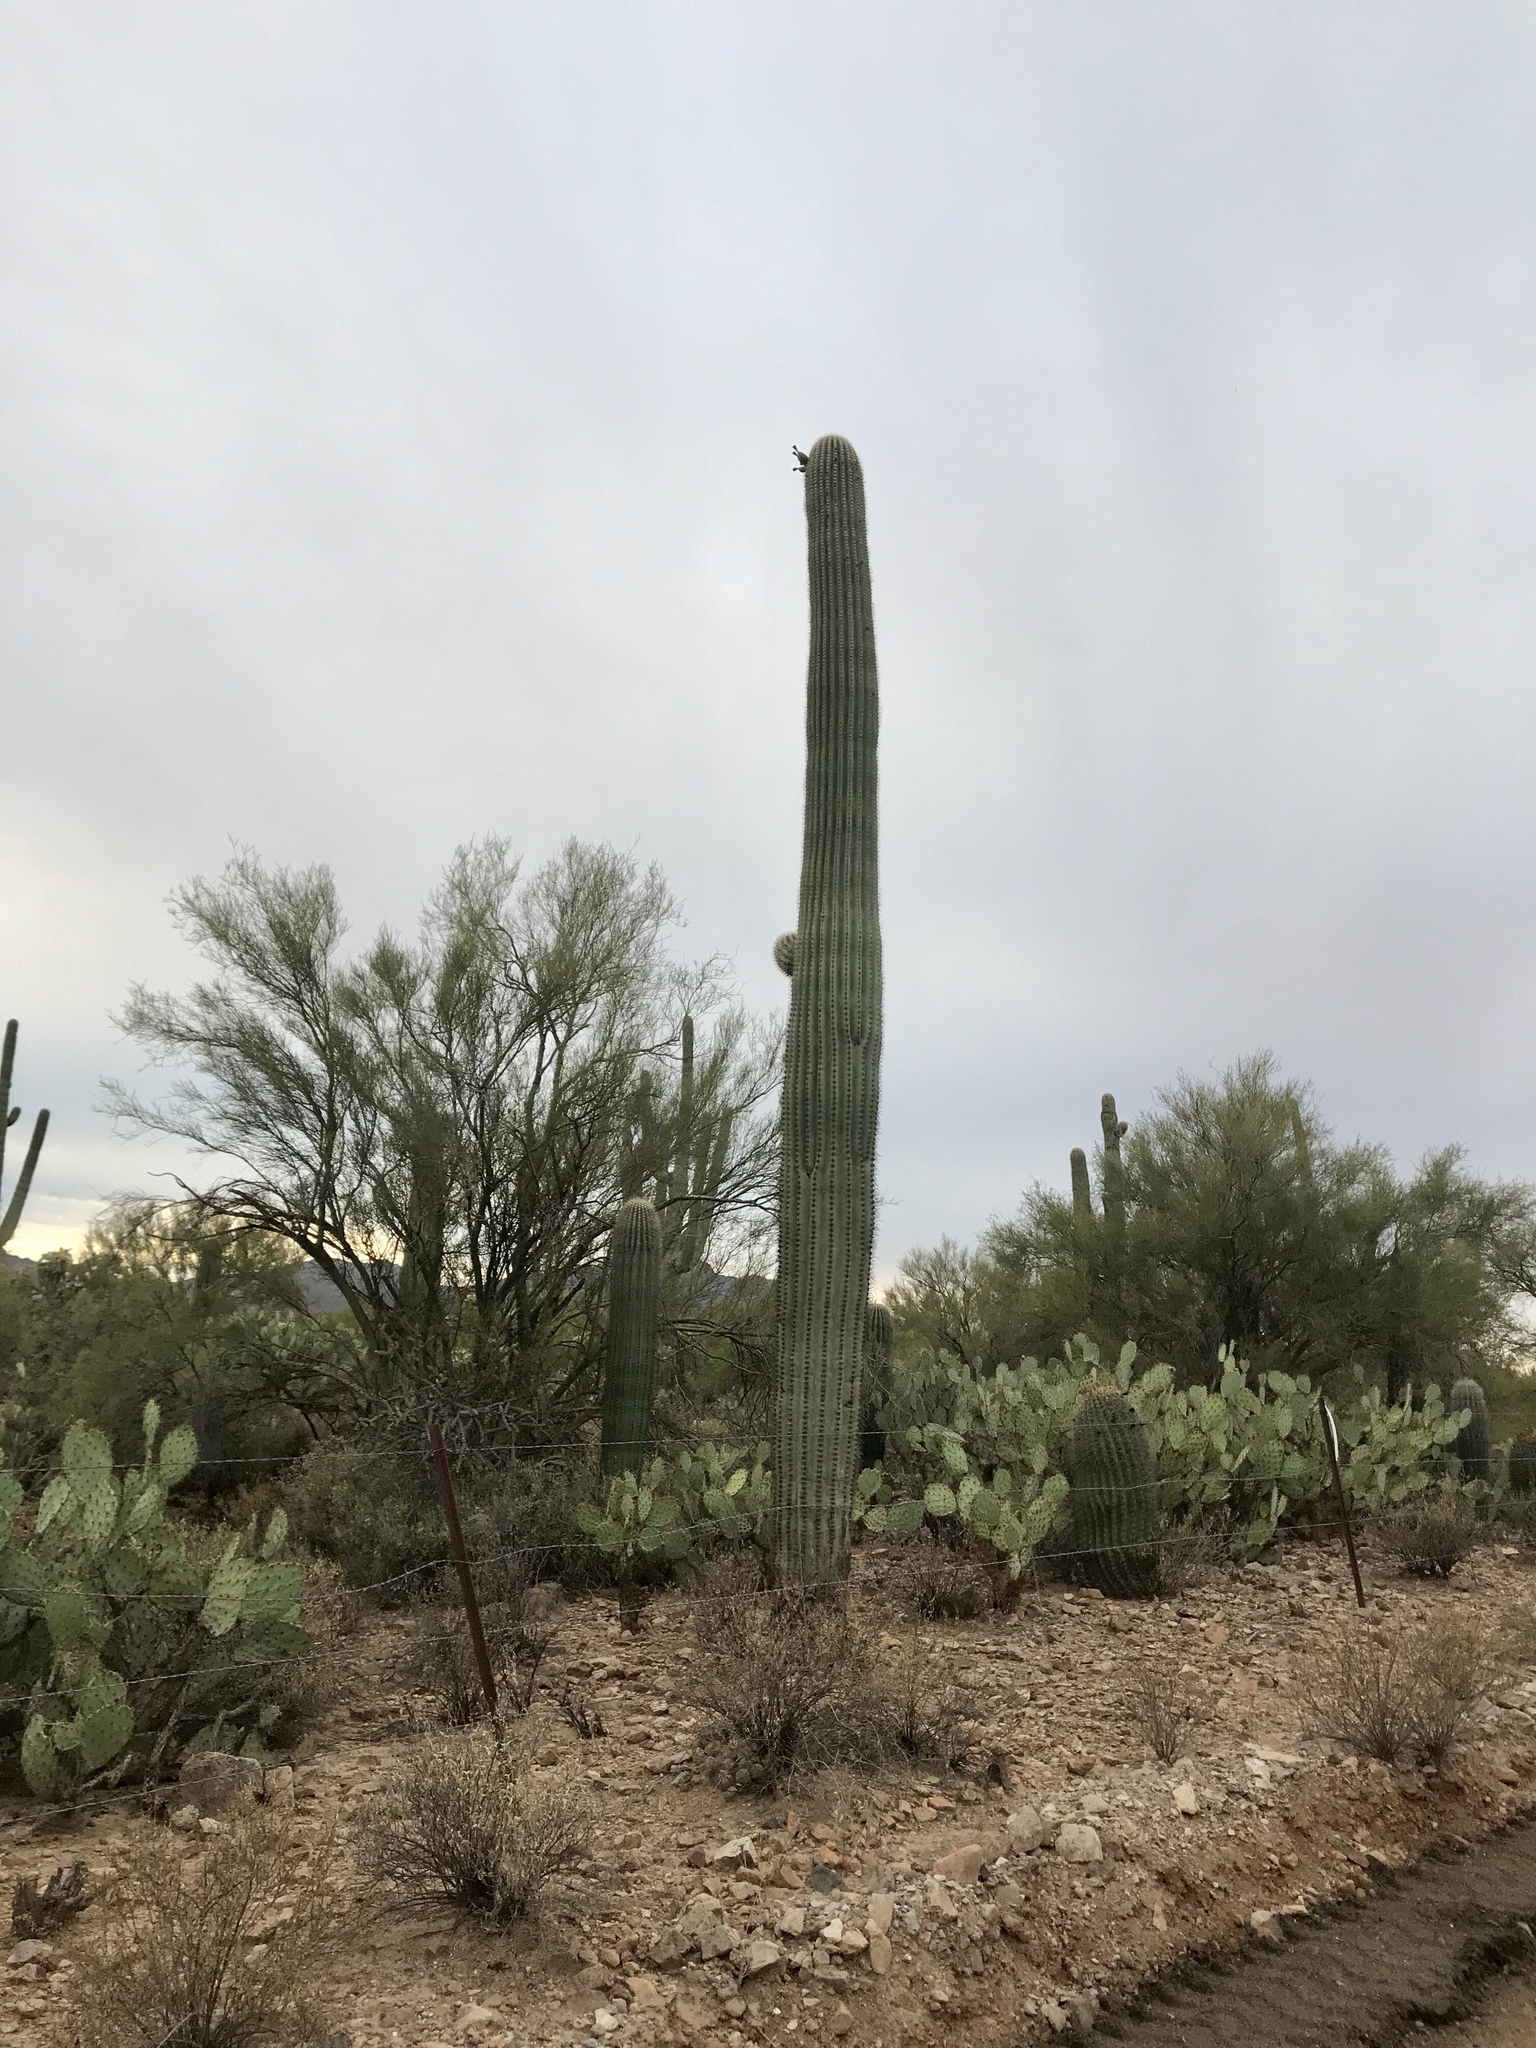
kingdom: Plantae
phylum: Tracheophyta
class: Magnoliopsida
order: Caryophyllales
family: Cactaceae
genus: Carnegiea
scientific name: Carnegiea gigantea
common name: Saguaro
